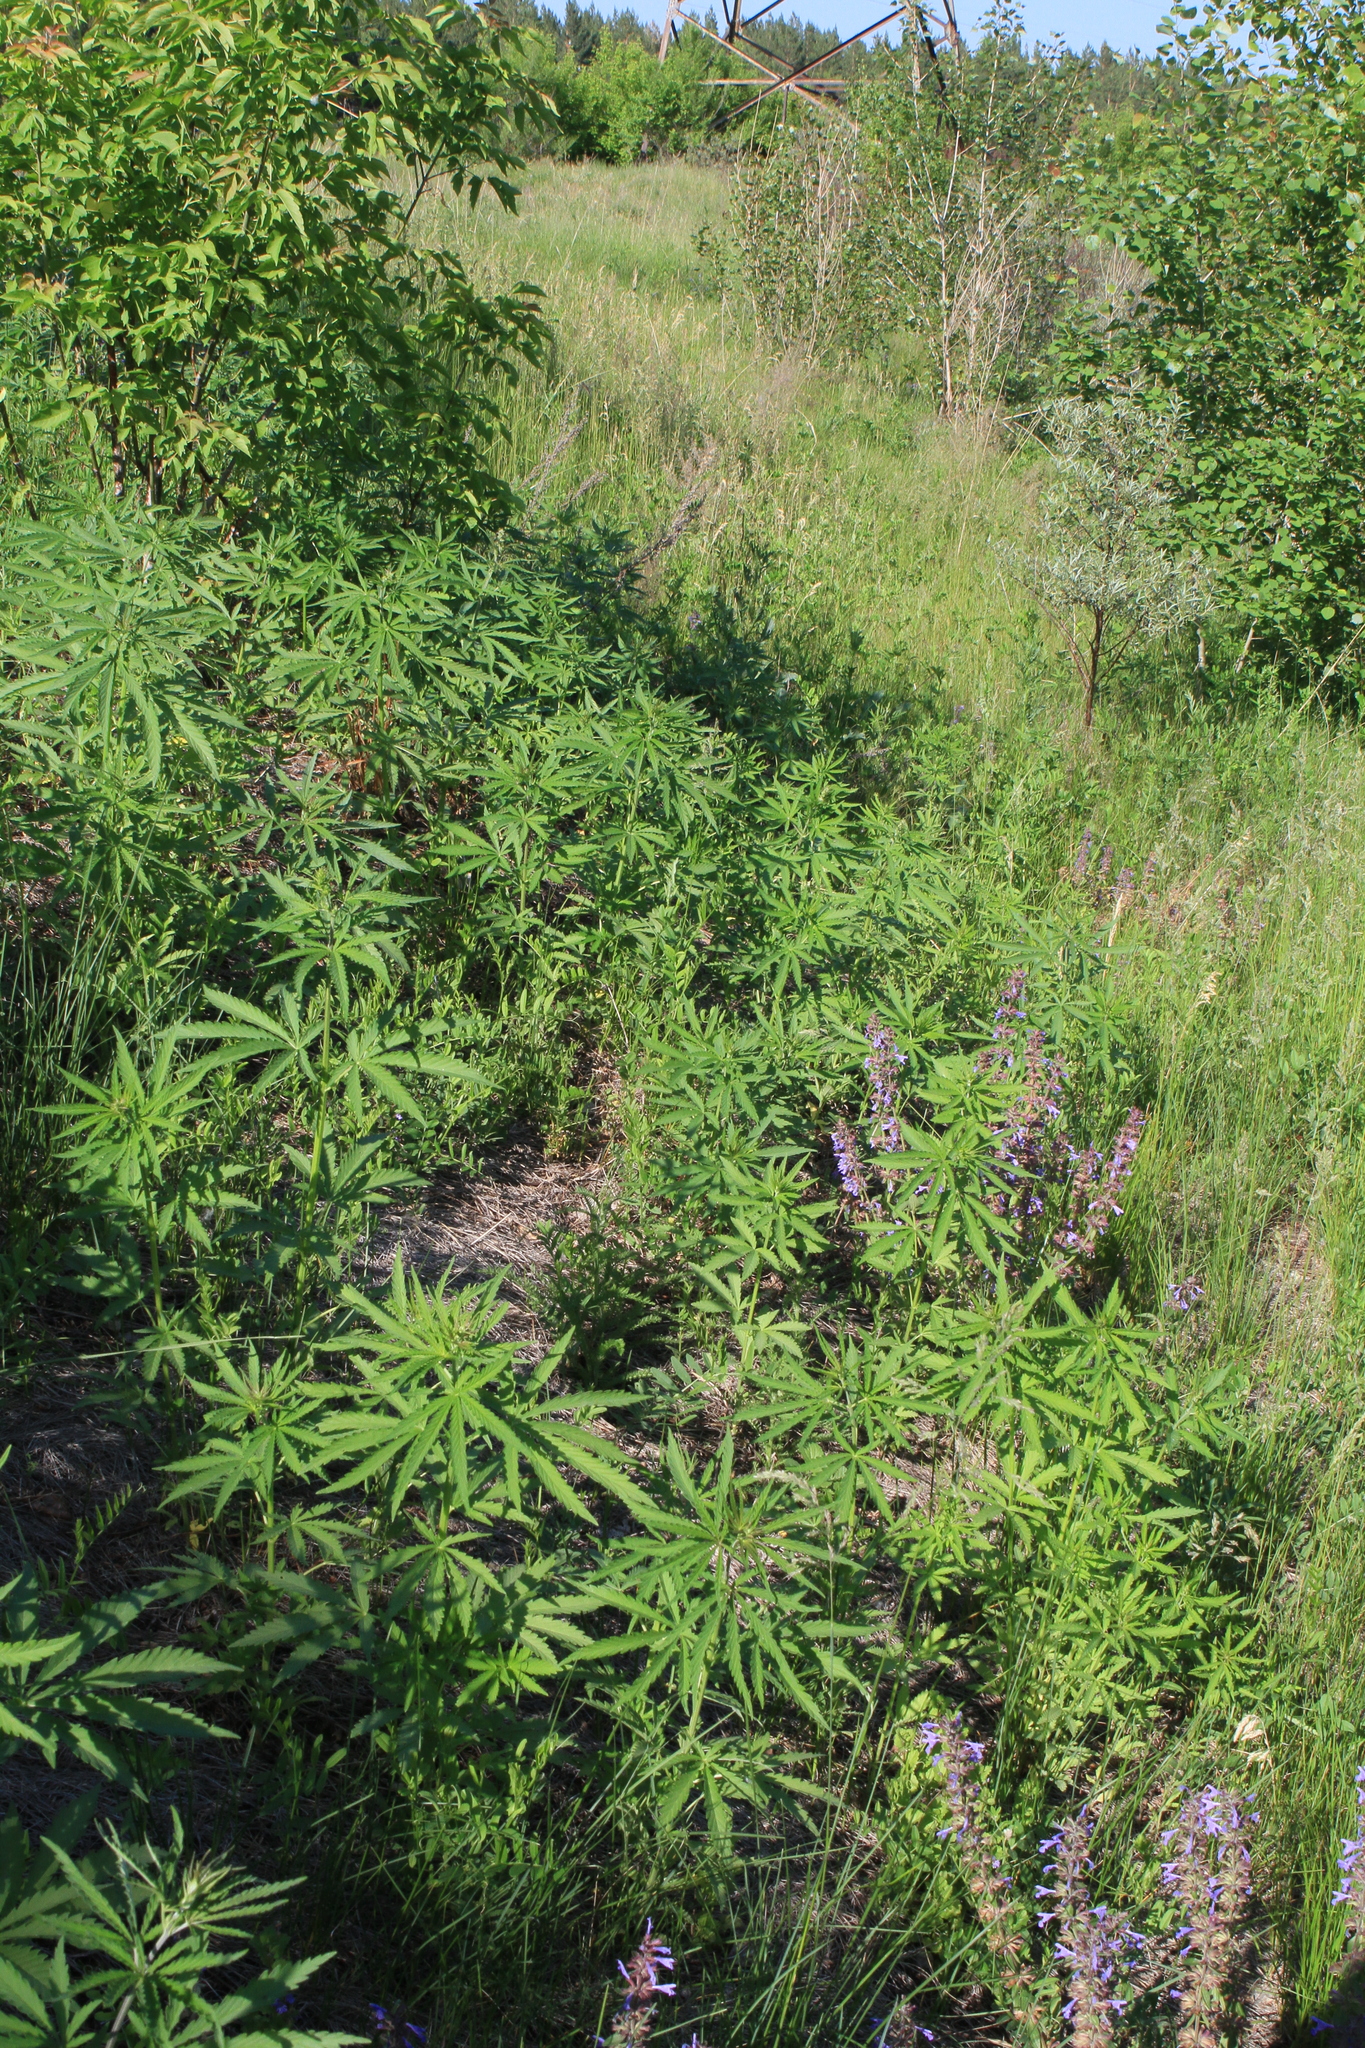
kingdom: Plantae
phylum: Tracheophyta
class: Magnoliopsida
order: Rosales
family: Cannabaceae
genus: Cannabis
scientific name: Cannabis sativa
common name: Hemp
